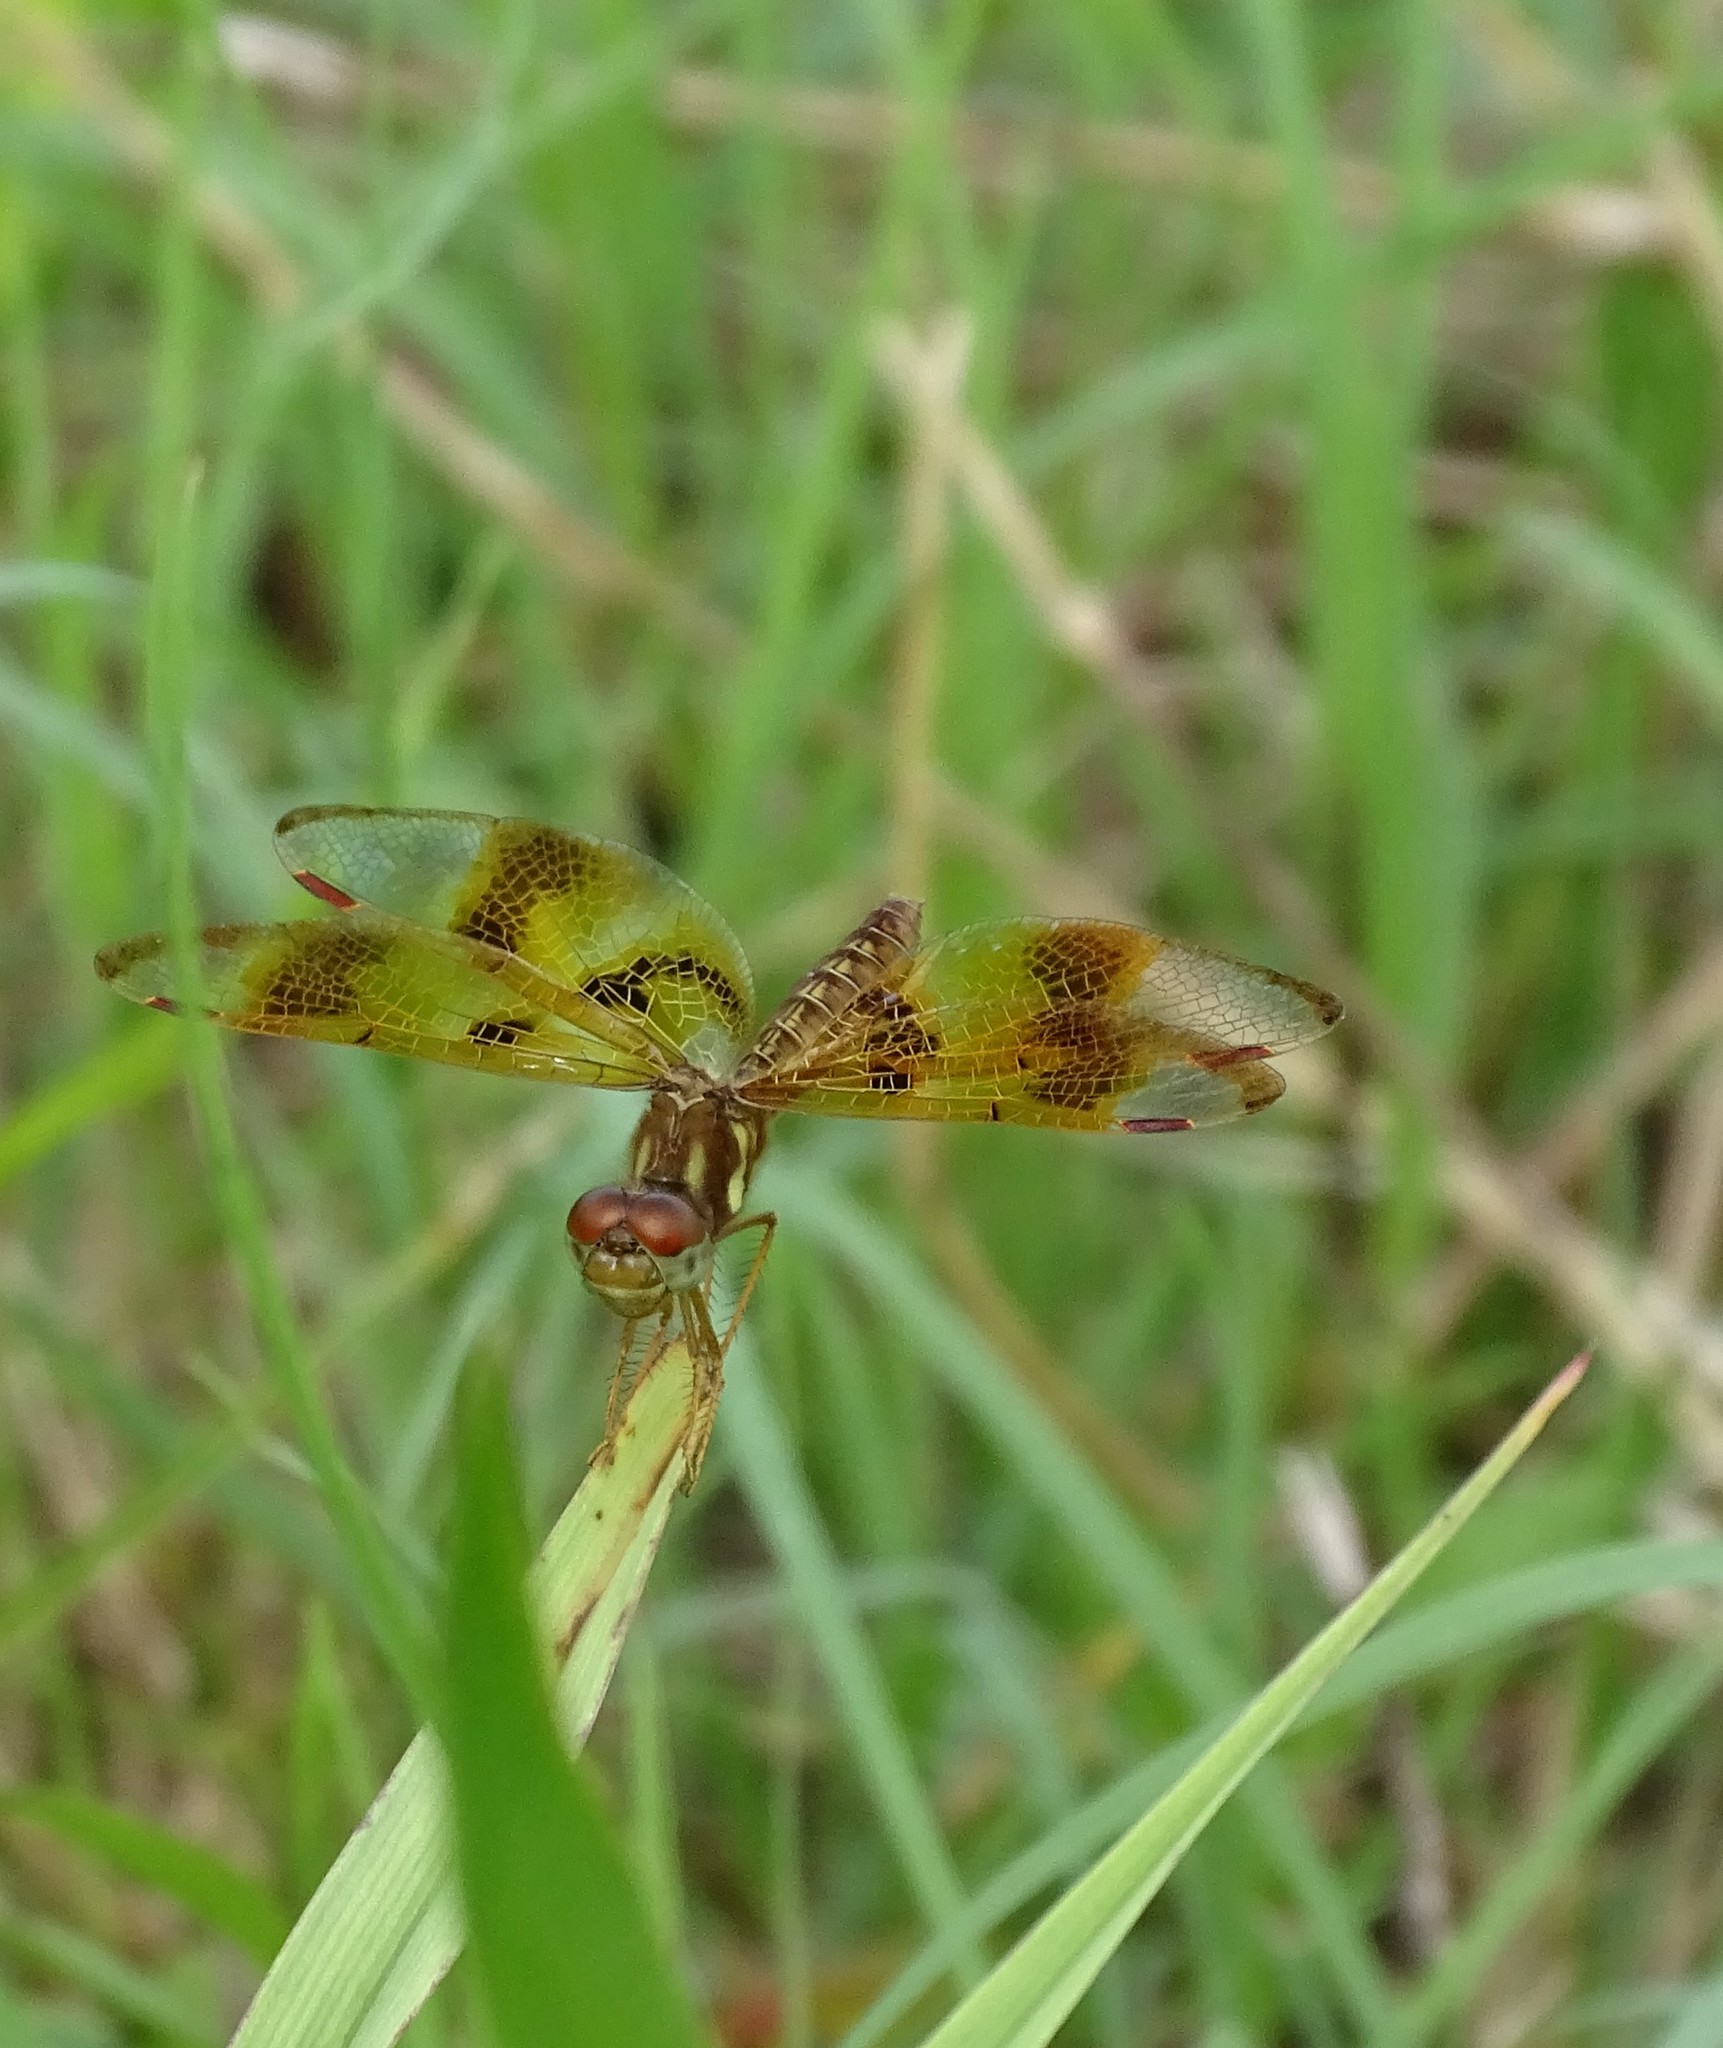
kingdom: Animalia
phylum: Arthropoda
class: Insecta
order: Odonata
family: Libellulidae
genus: Perithemis
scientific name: Perithemis tenera
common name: Eastern amberwing
